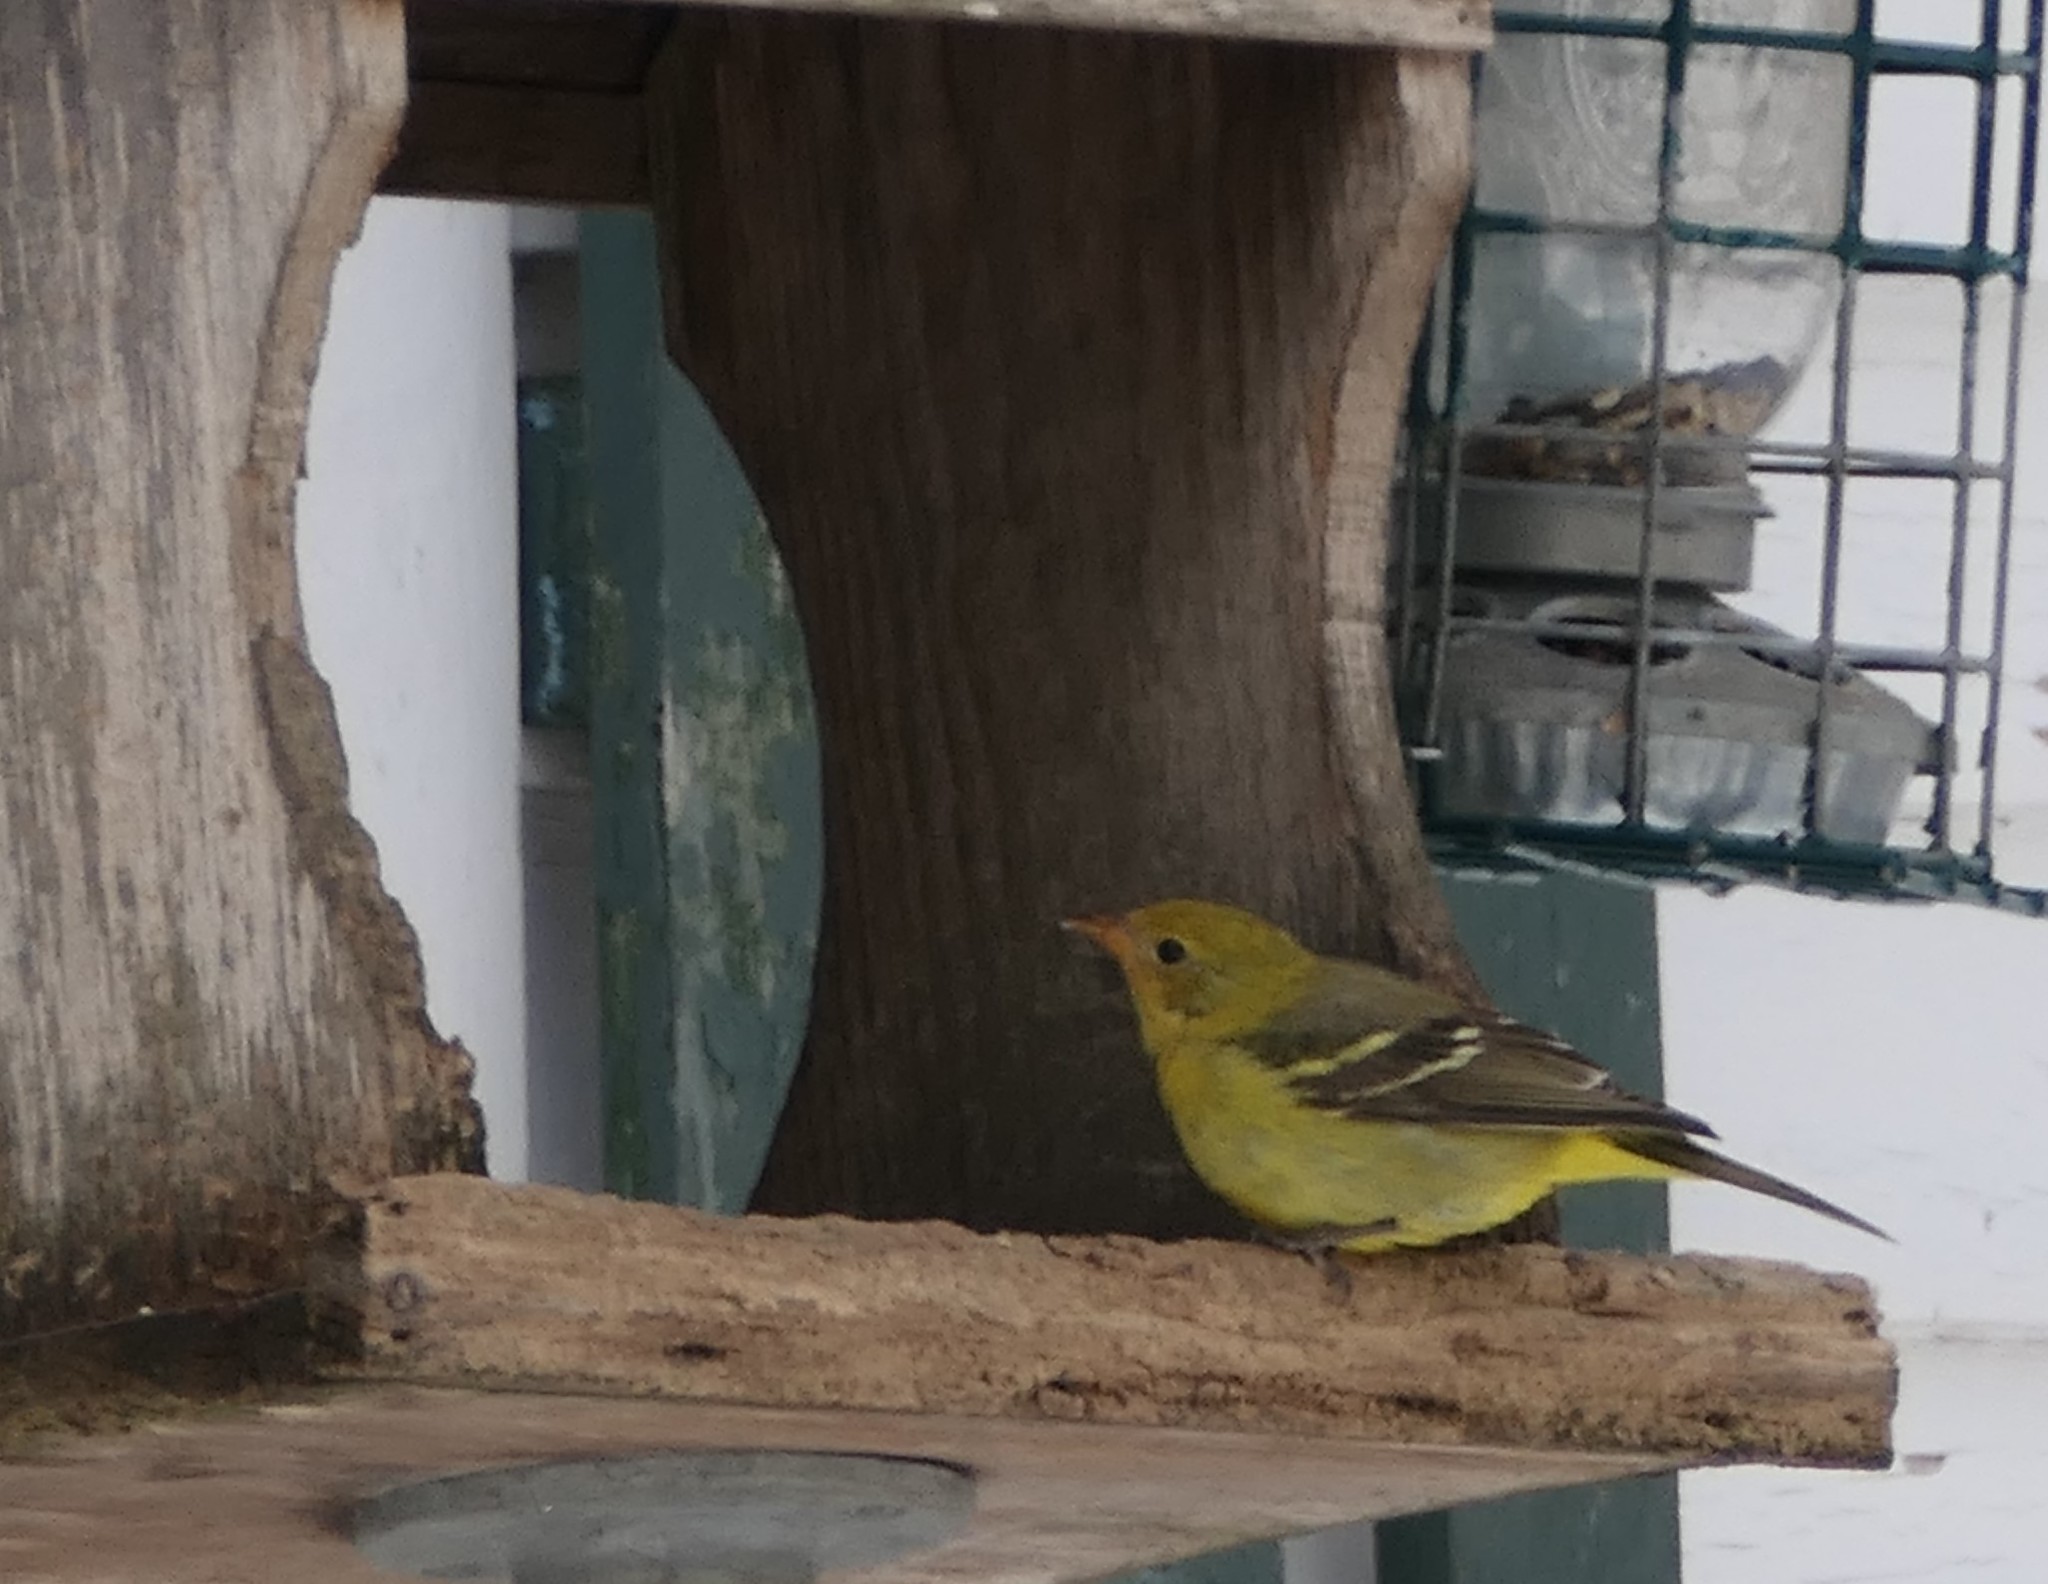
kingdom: Animalia
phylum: Chordata
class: Aves
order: Passeriformes
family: Cardinalidae
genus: Piranga
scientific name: Piranga ludoviciana
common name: Western tanager
